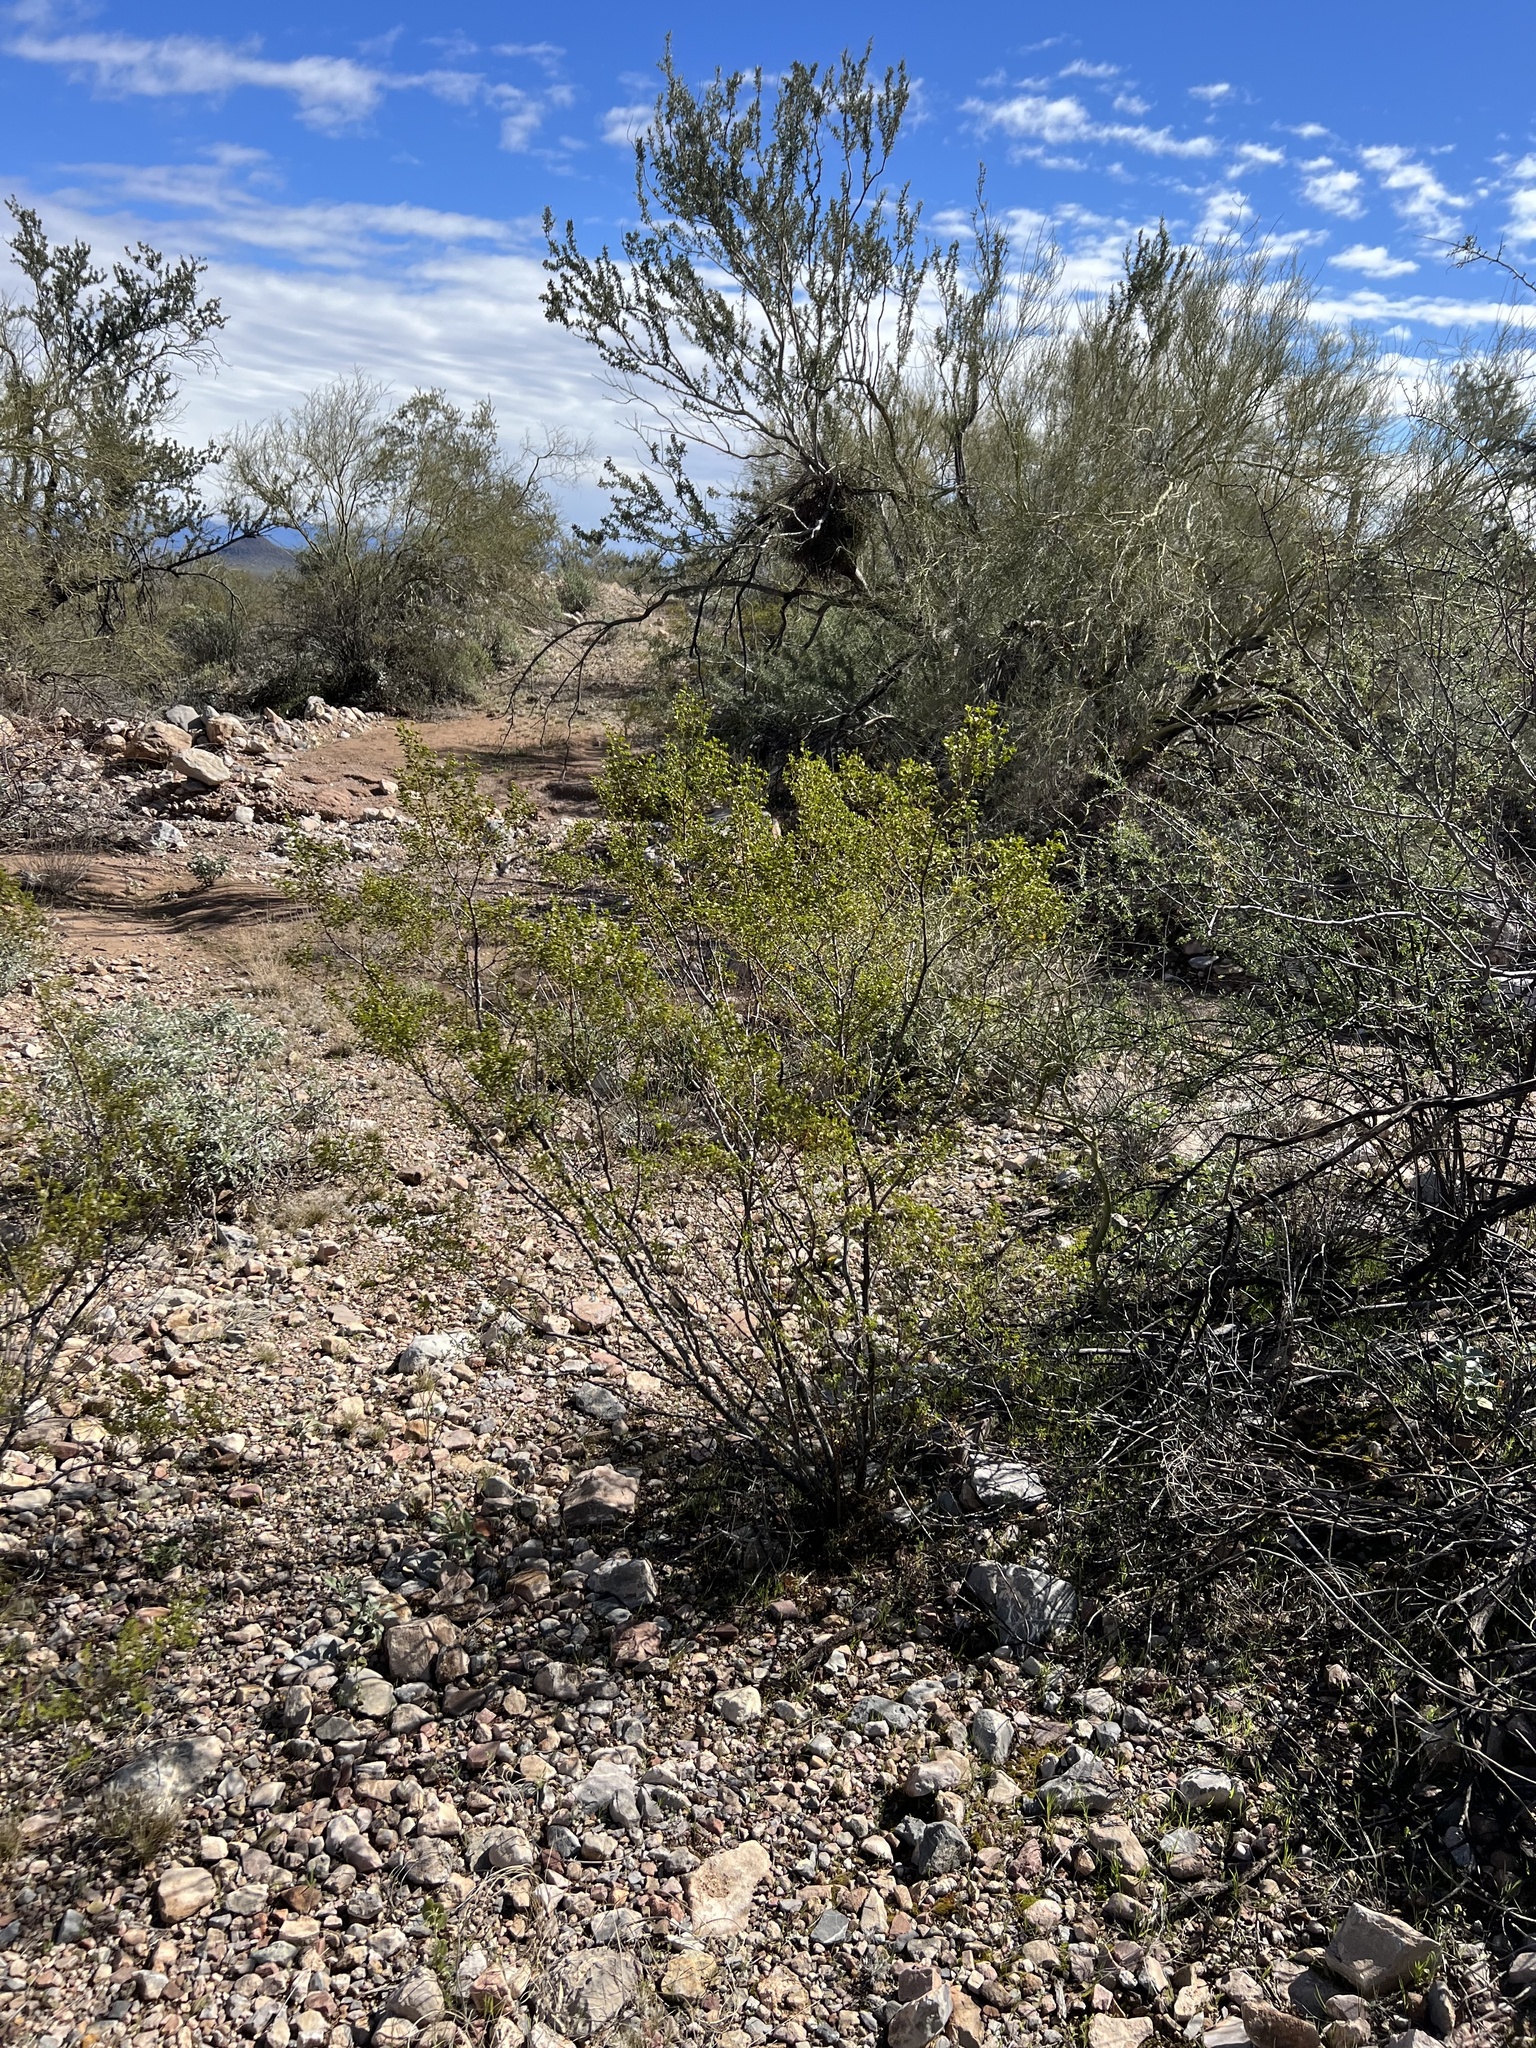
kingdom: Plantae
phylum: Tracheophyta
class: Magnoliopsida
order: Zygophyllales
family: Zygophyllaceae
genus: Larrea
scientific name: Larrea tridentata
